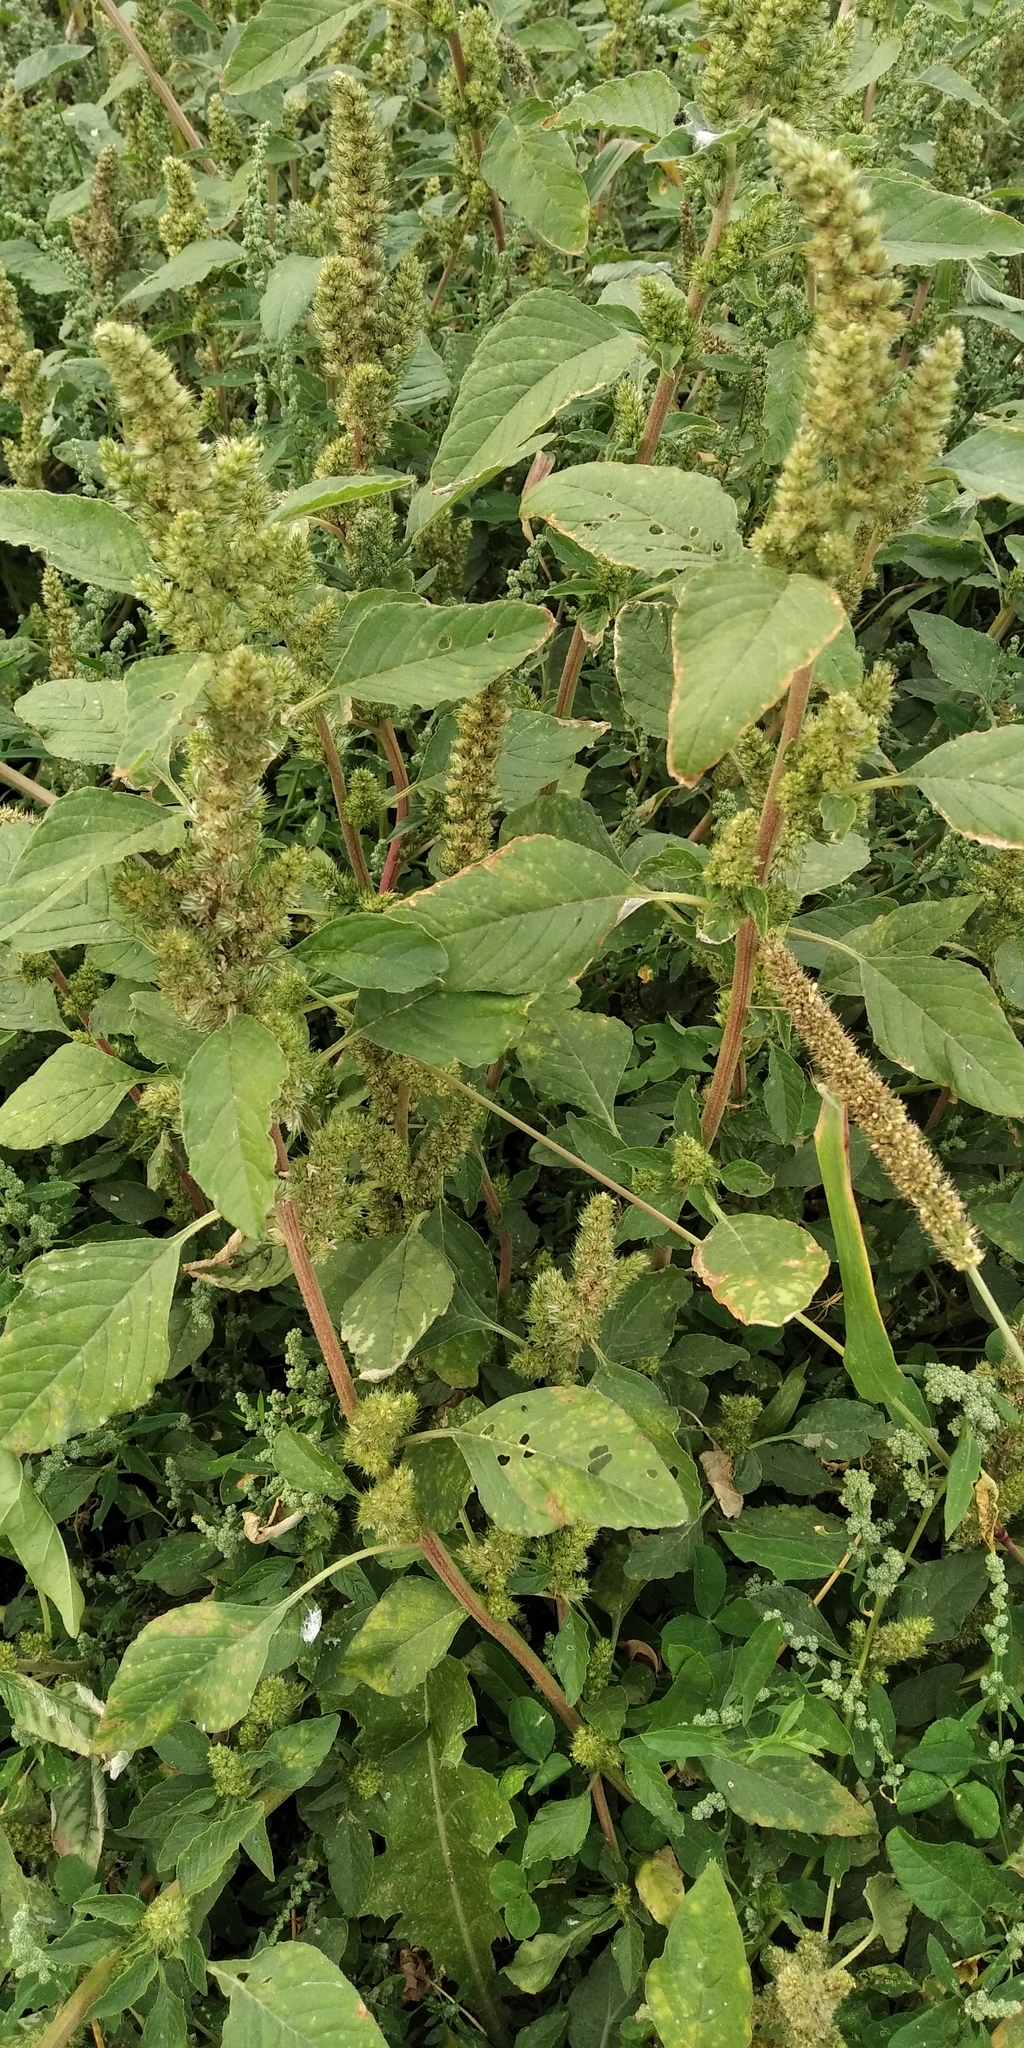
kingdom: Plantae
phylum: Tracheophyta
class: Magnoliopsida
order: Caryophyllales
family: Amaranthaceae
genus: Amaranthus
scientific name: Amaranthus retroflexus
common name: Redroot amaranth
